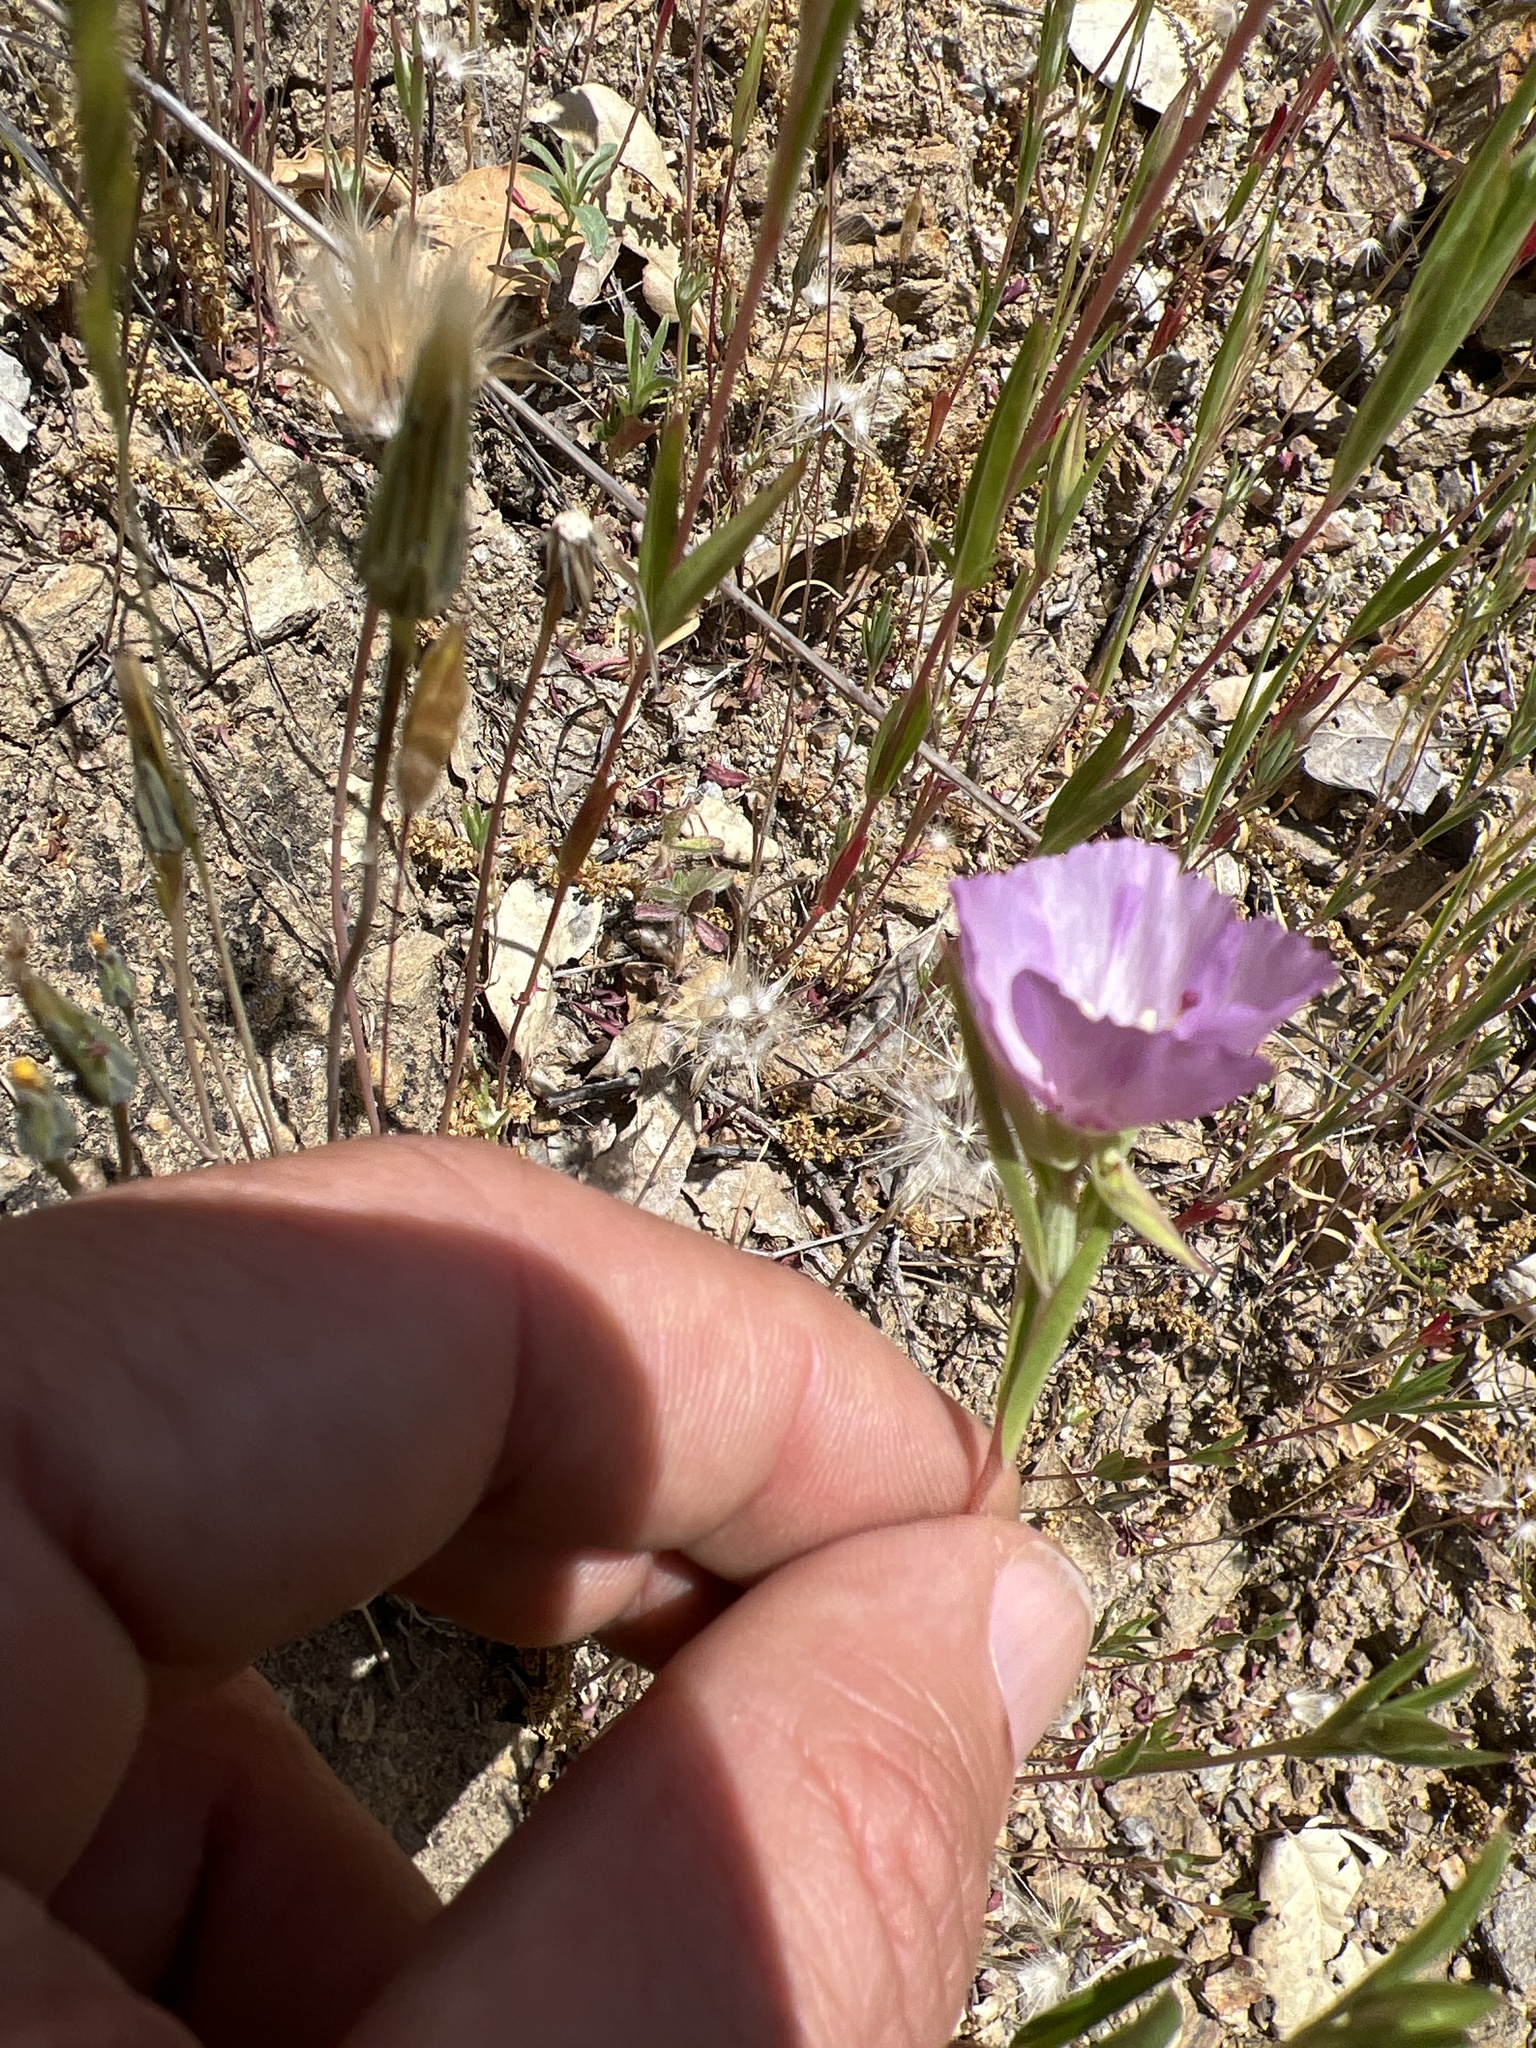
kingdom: Plantae
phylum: Tracheophyta
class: Magnoliopsida
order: Myrtales
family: Onagraceae
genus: Clarkia
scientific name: Clarkia purpurea
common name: Purple clarkia
